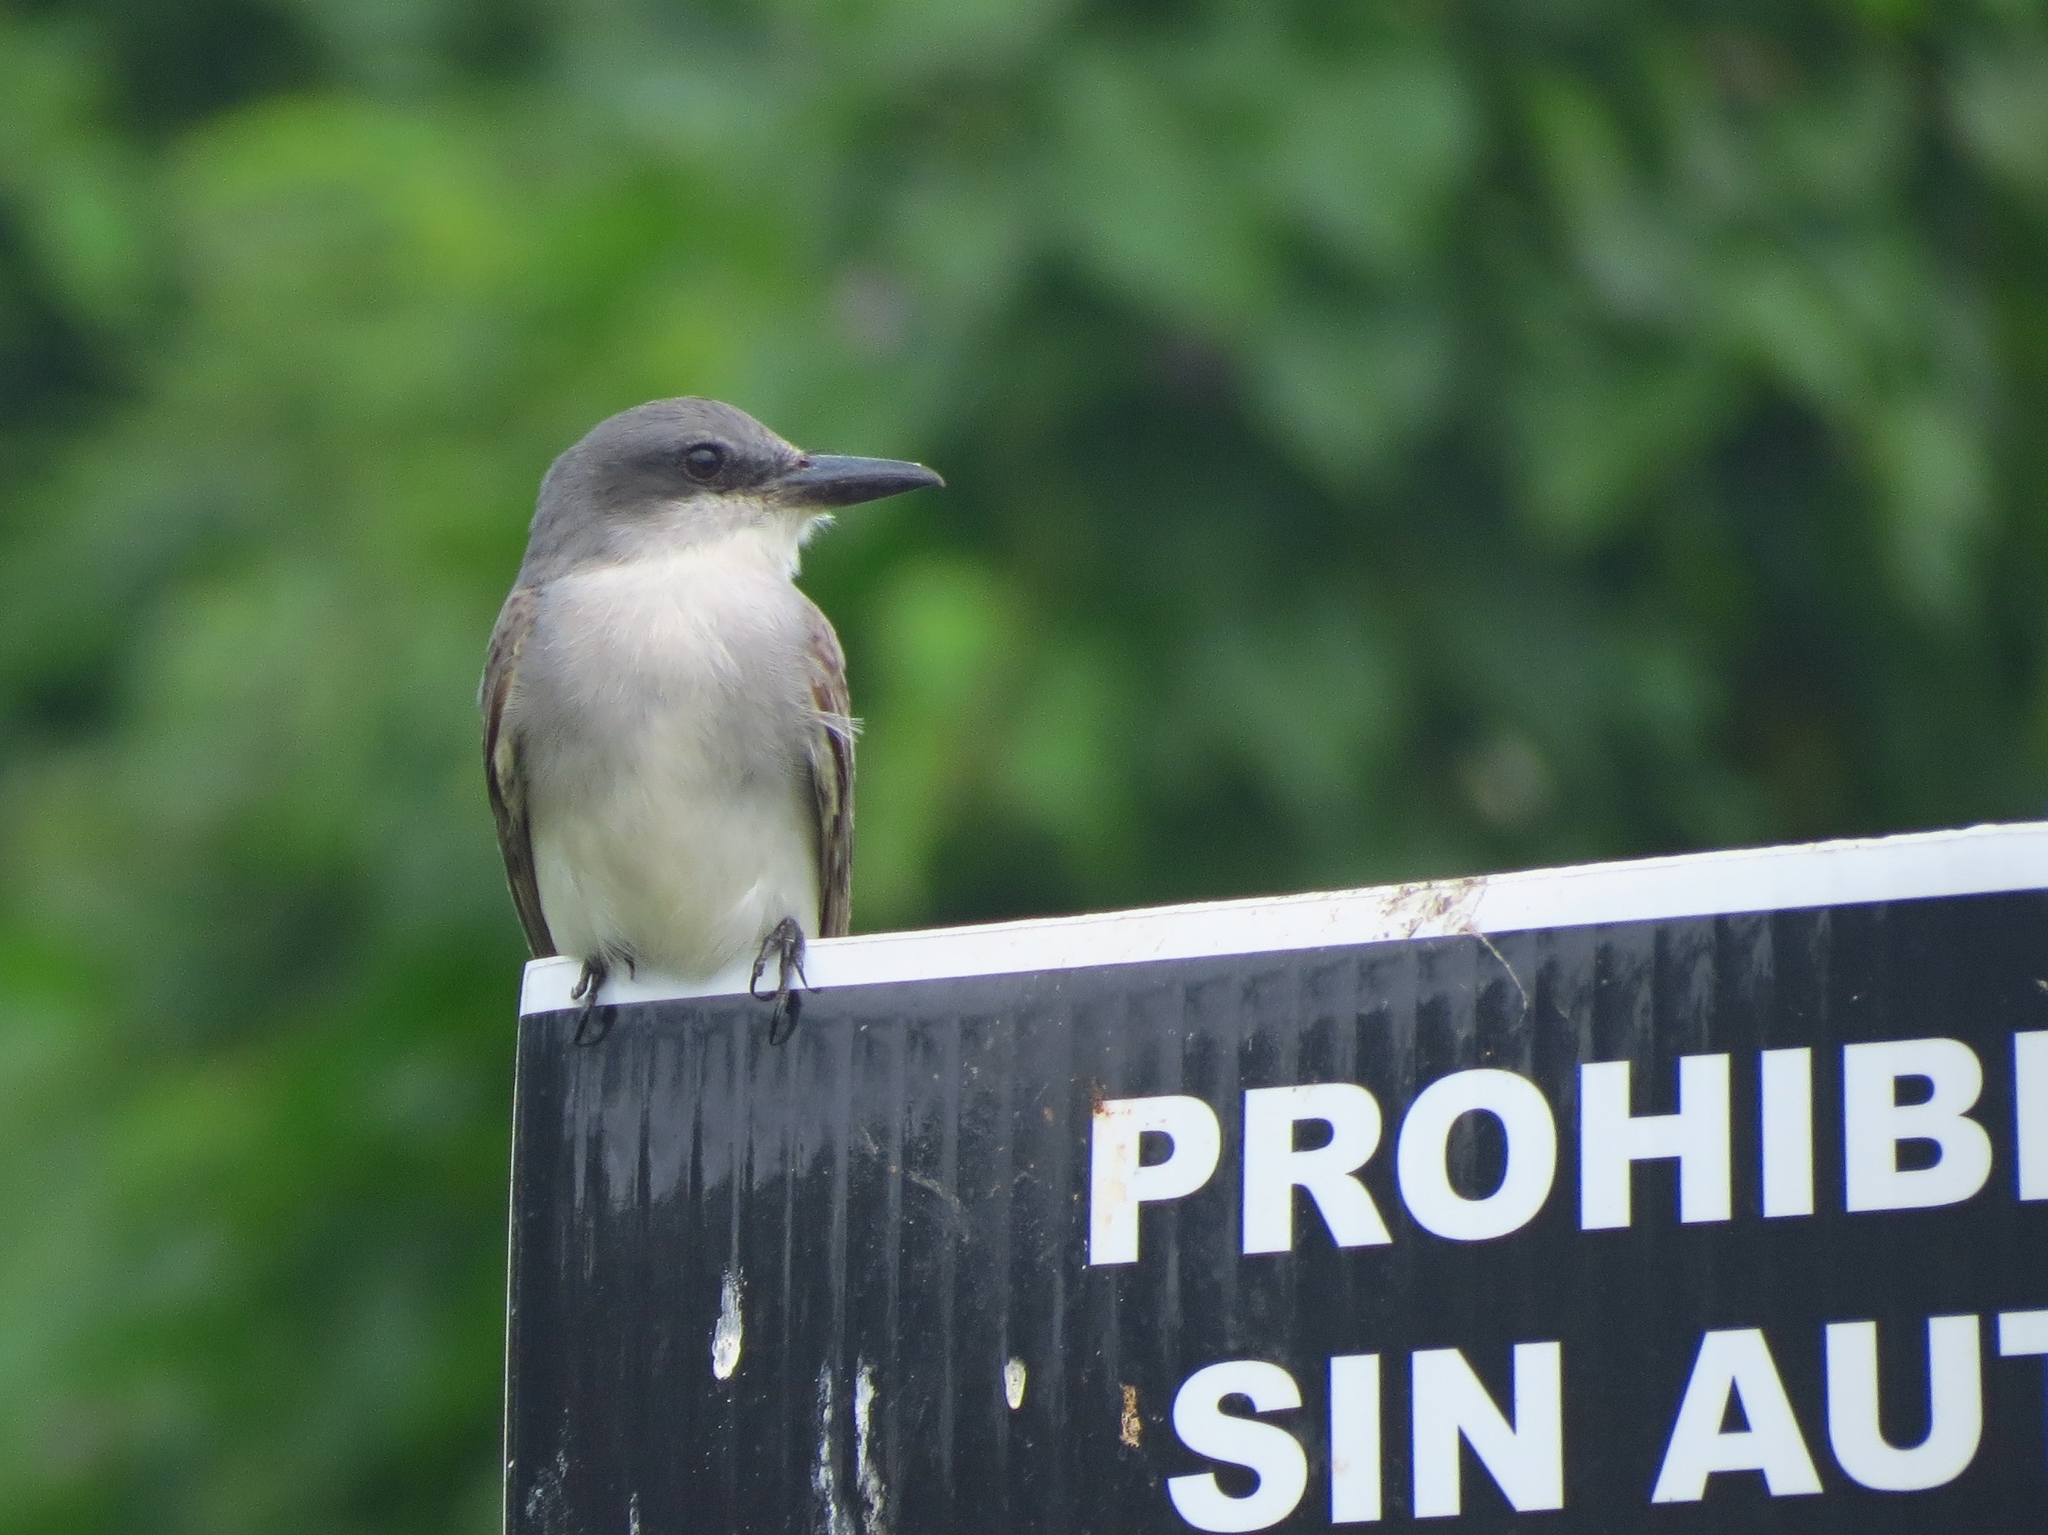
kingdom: Animalia
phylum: Chordata
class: Aves
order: Passeriformes
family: Tyrannidae
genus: Tyrannus
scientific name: Tyrannus dominicensis
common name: Gray kingbird
